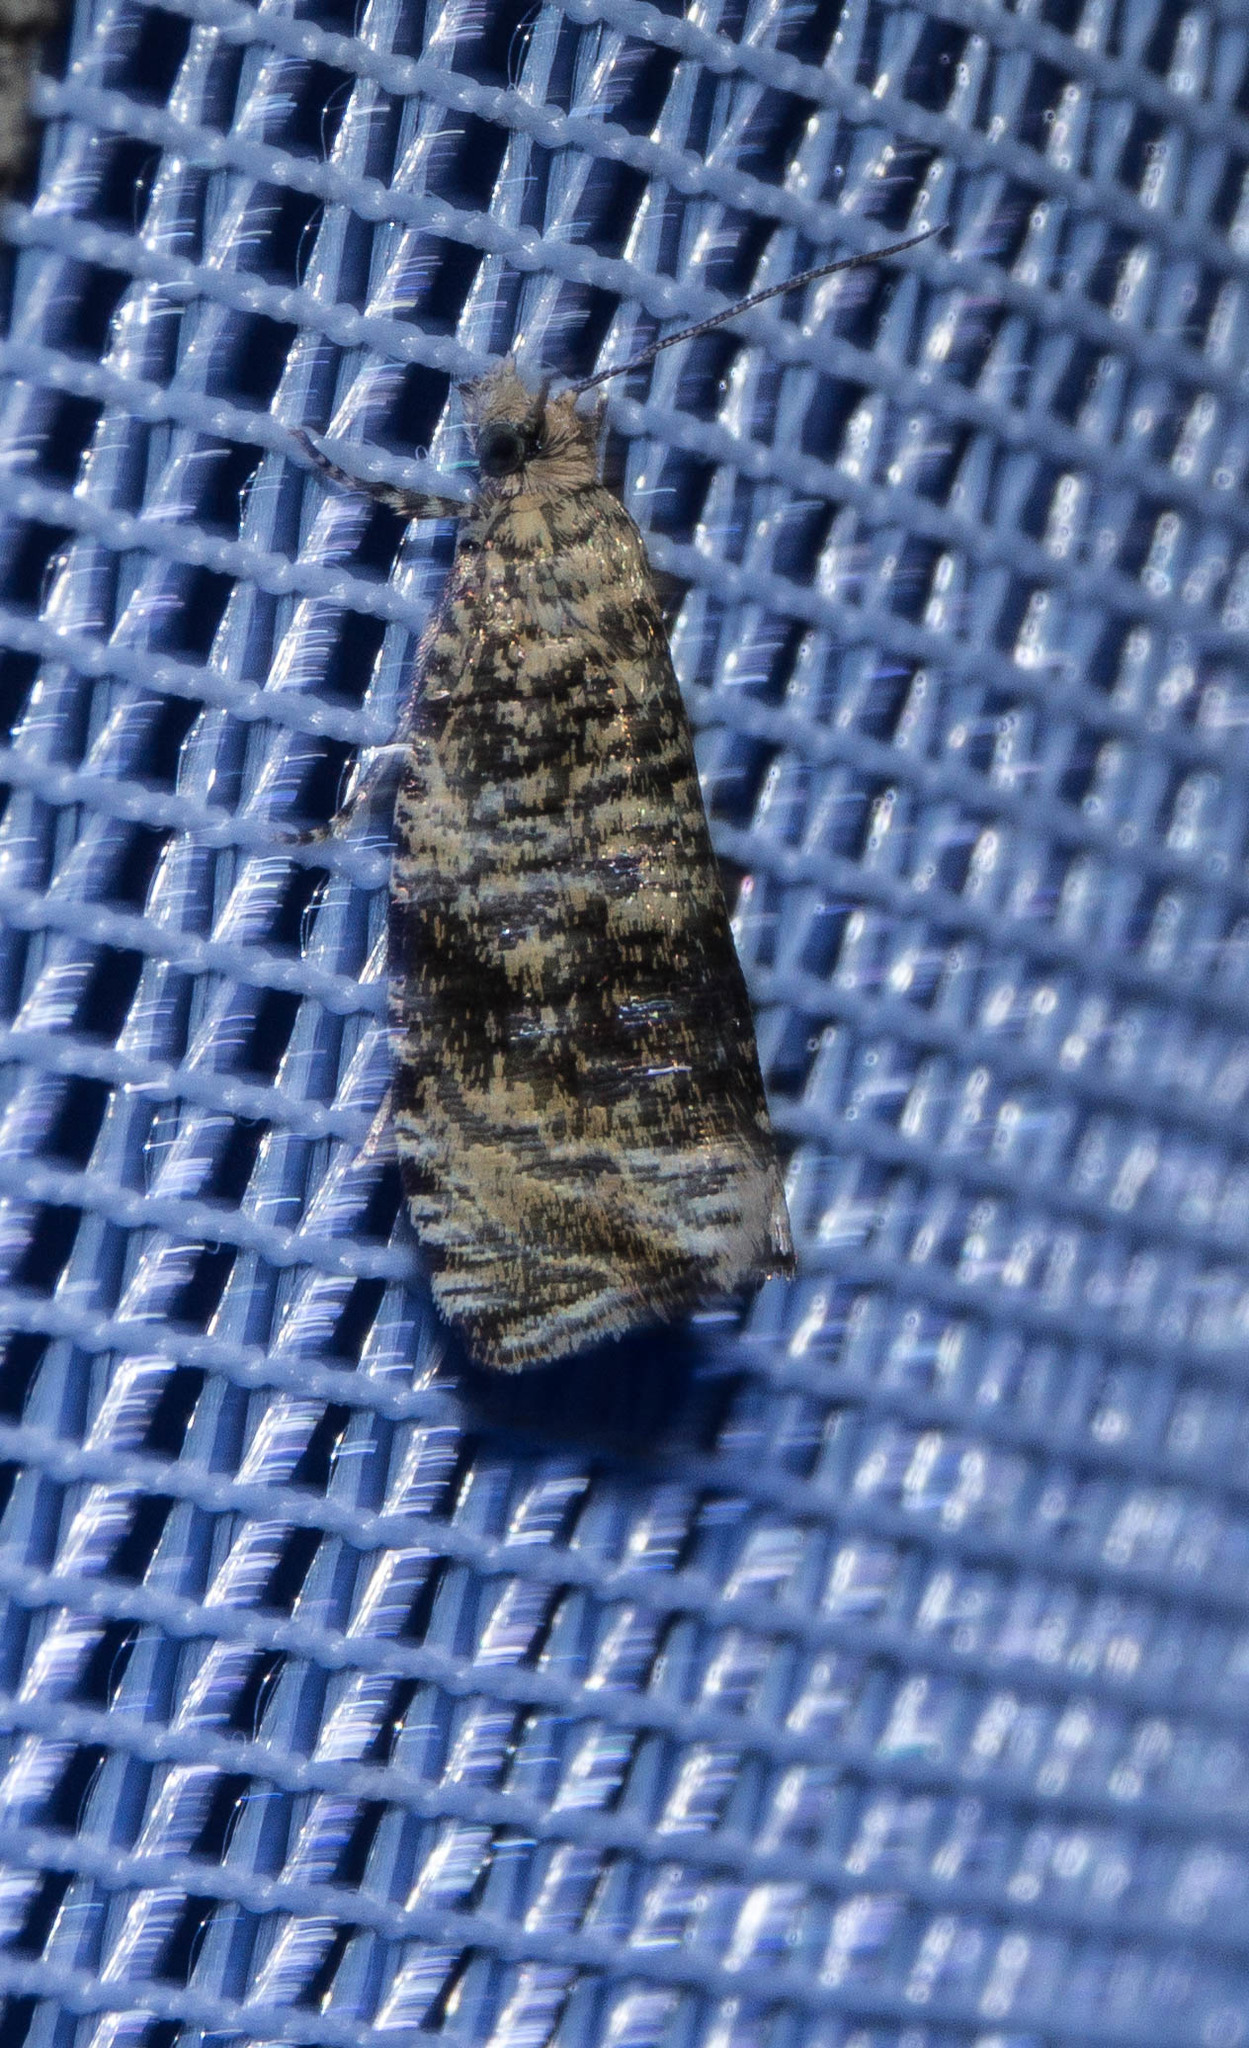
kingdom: Animalia
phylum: Arthropoda
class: Insecta
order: Lepidoptera
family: Tortricidae
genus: Syricoris
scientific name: Syricoris lacunana
